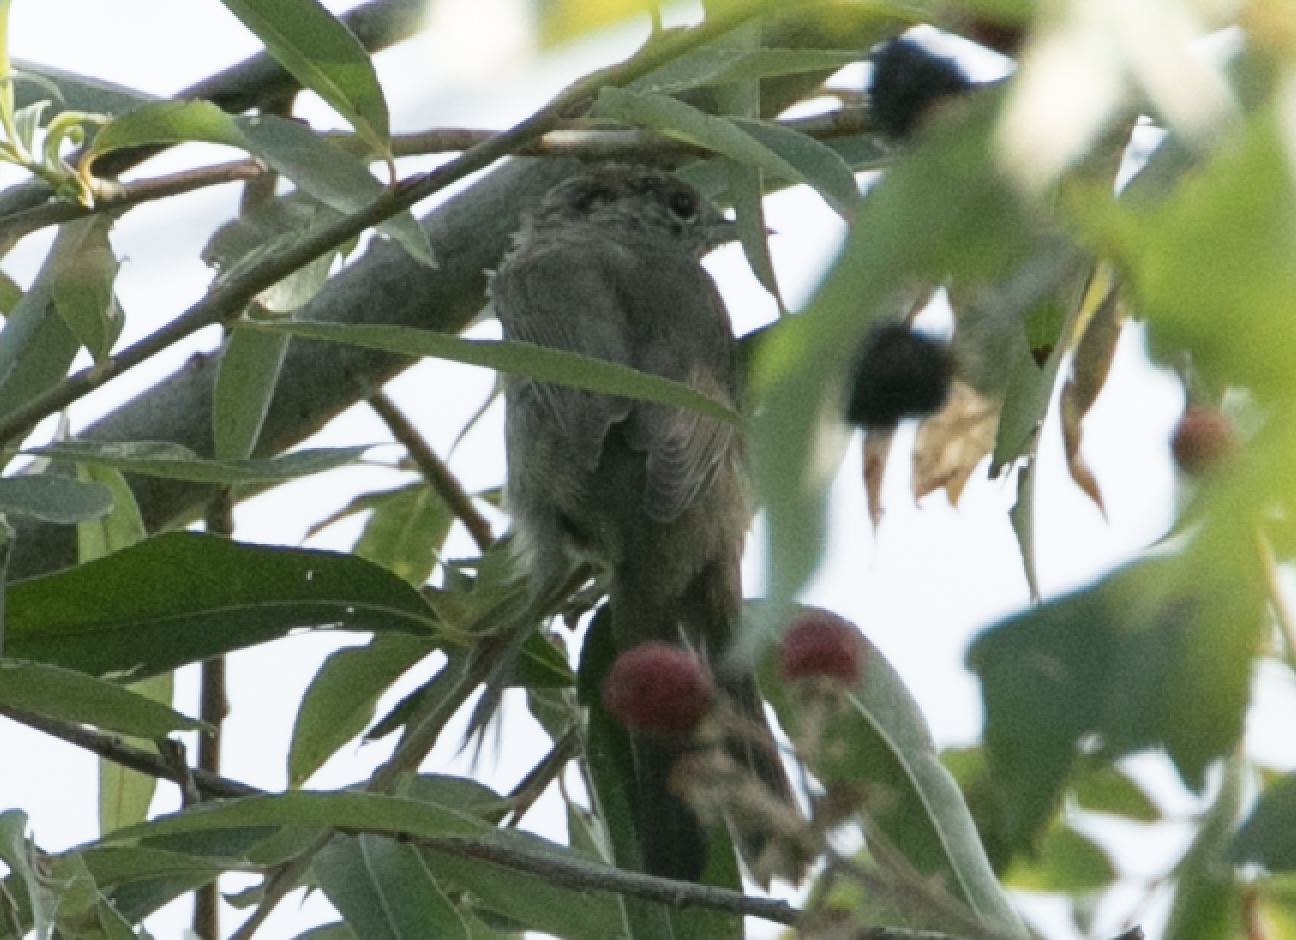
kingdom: Animalia
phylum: Chordata
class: Aves
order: Passeriformes
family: Sylviidae
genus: Sylvia
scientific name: Sylvia atricapilla
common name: Eurasian blackcap
